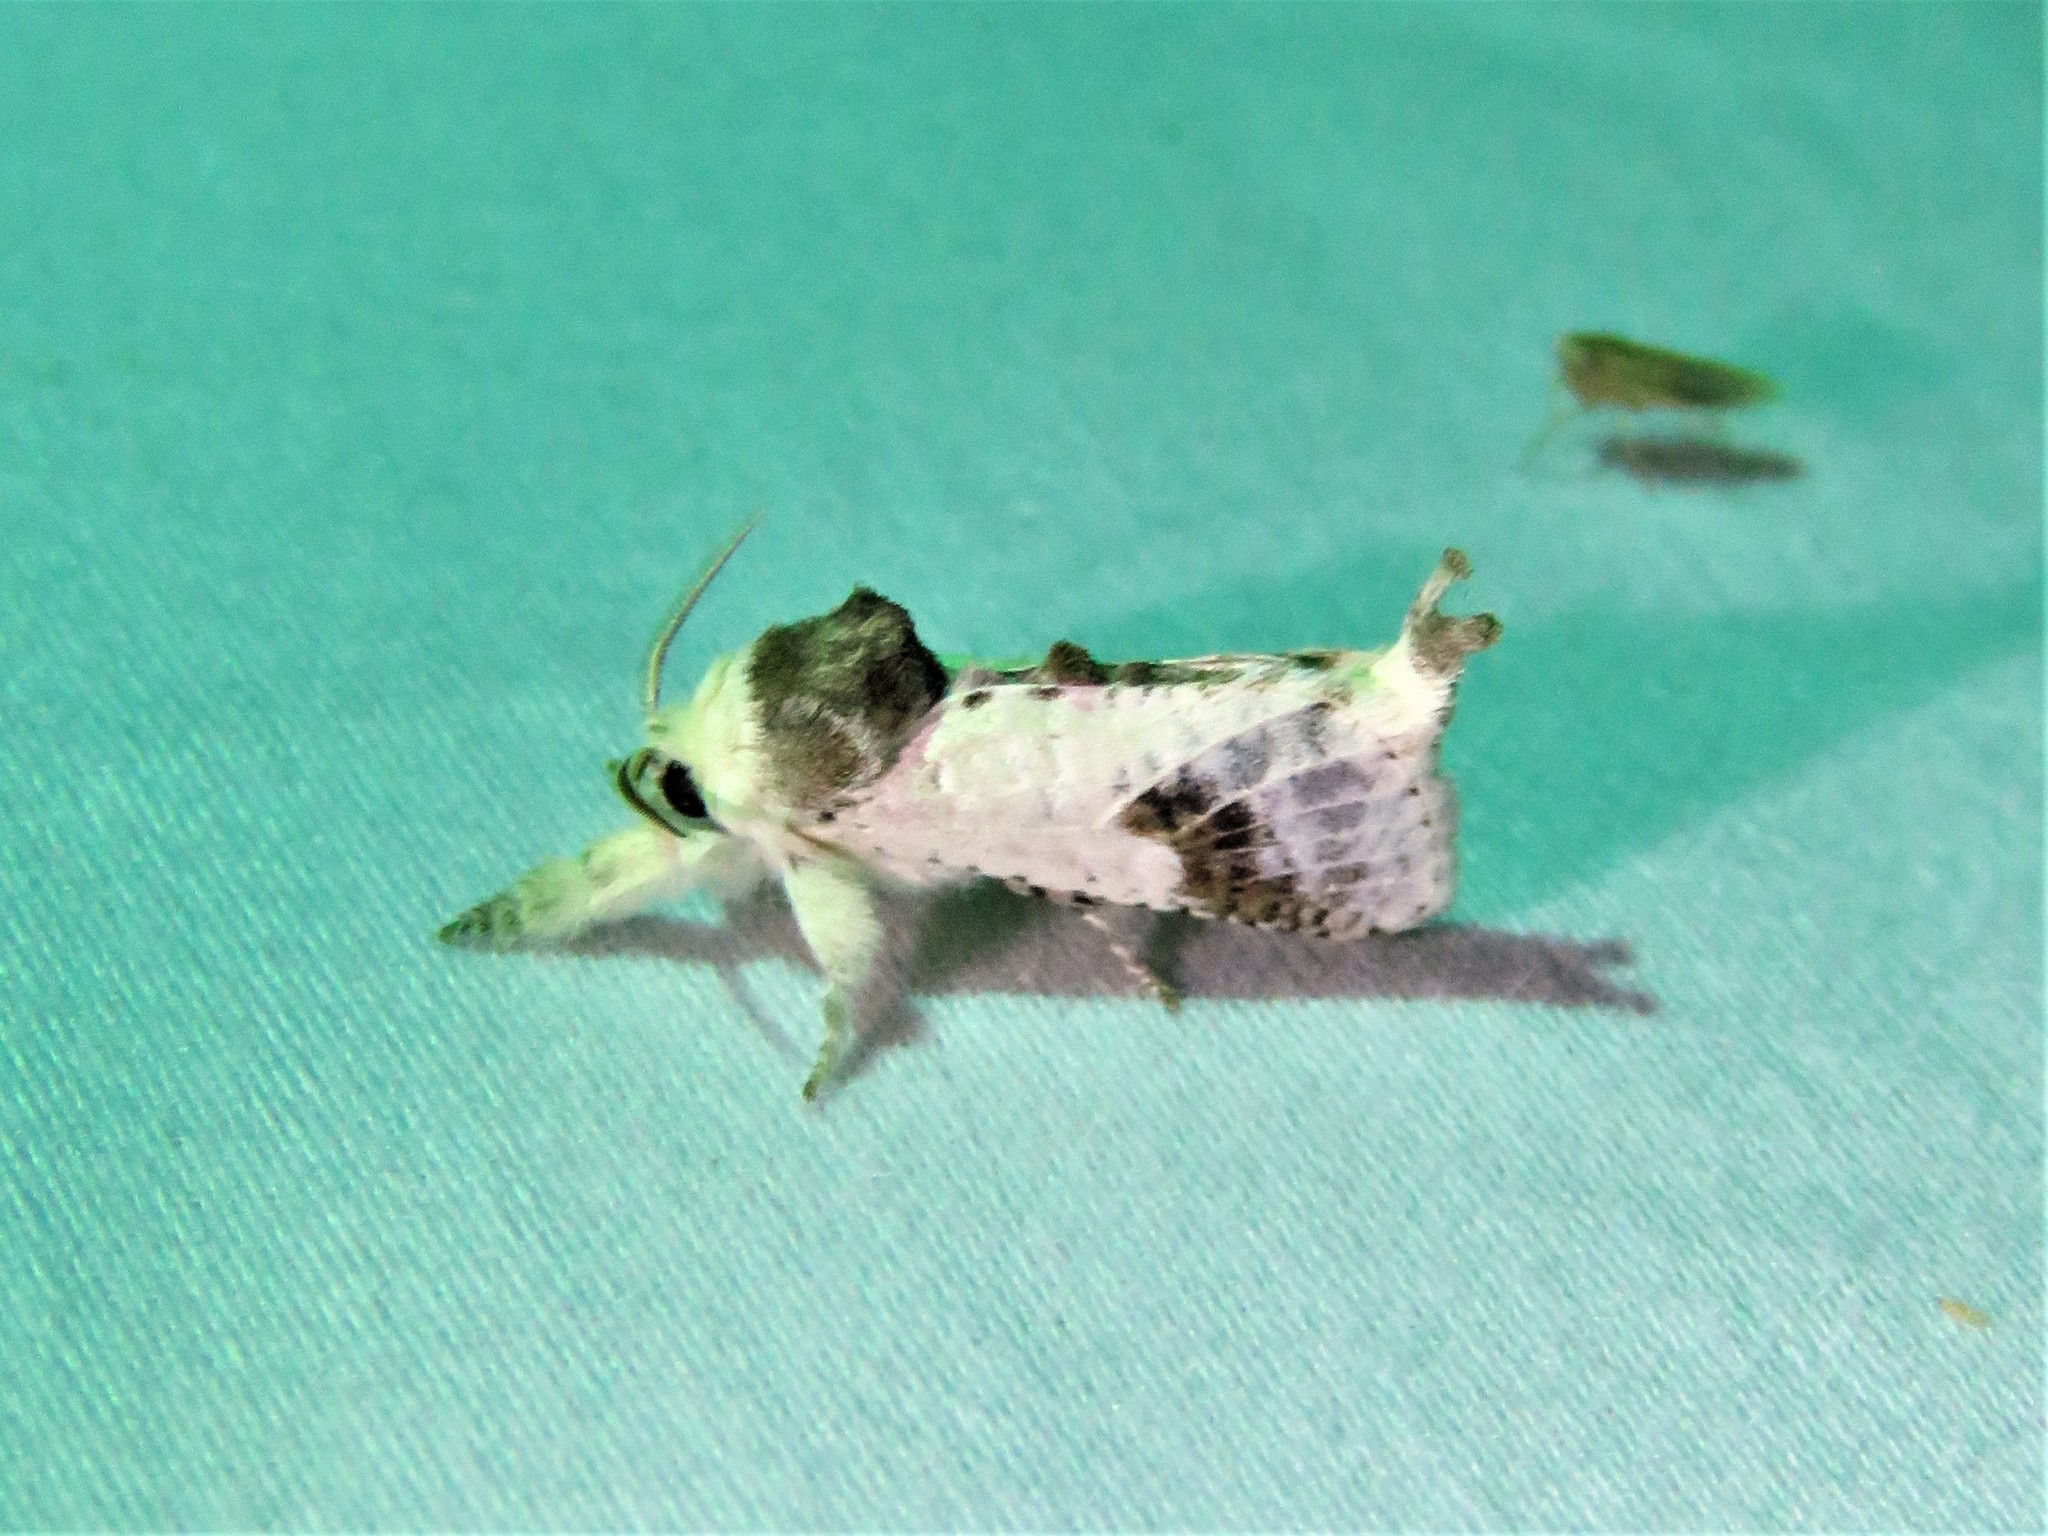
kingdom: Animalia
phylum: Arthropoda
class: Insecta
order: Lepidoptera
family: Cossidae
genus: Givira
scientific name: Givira theodori
